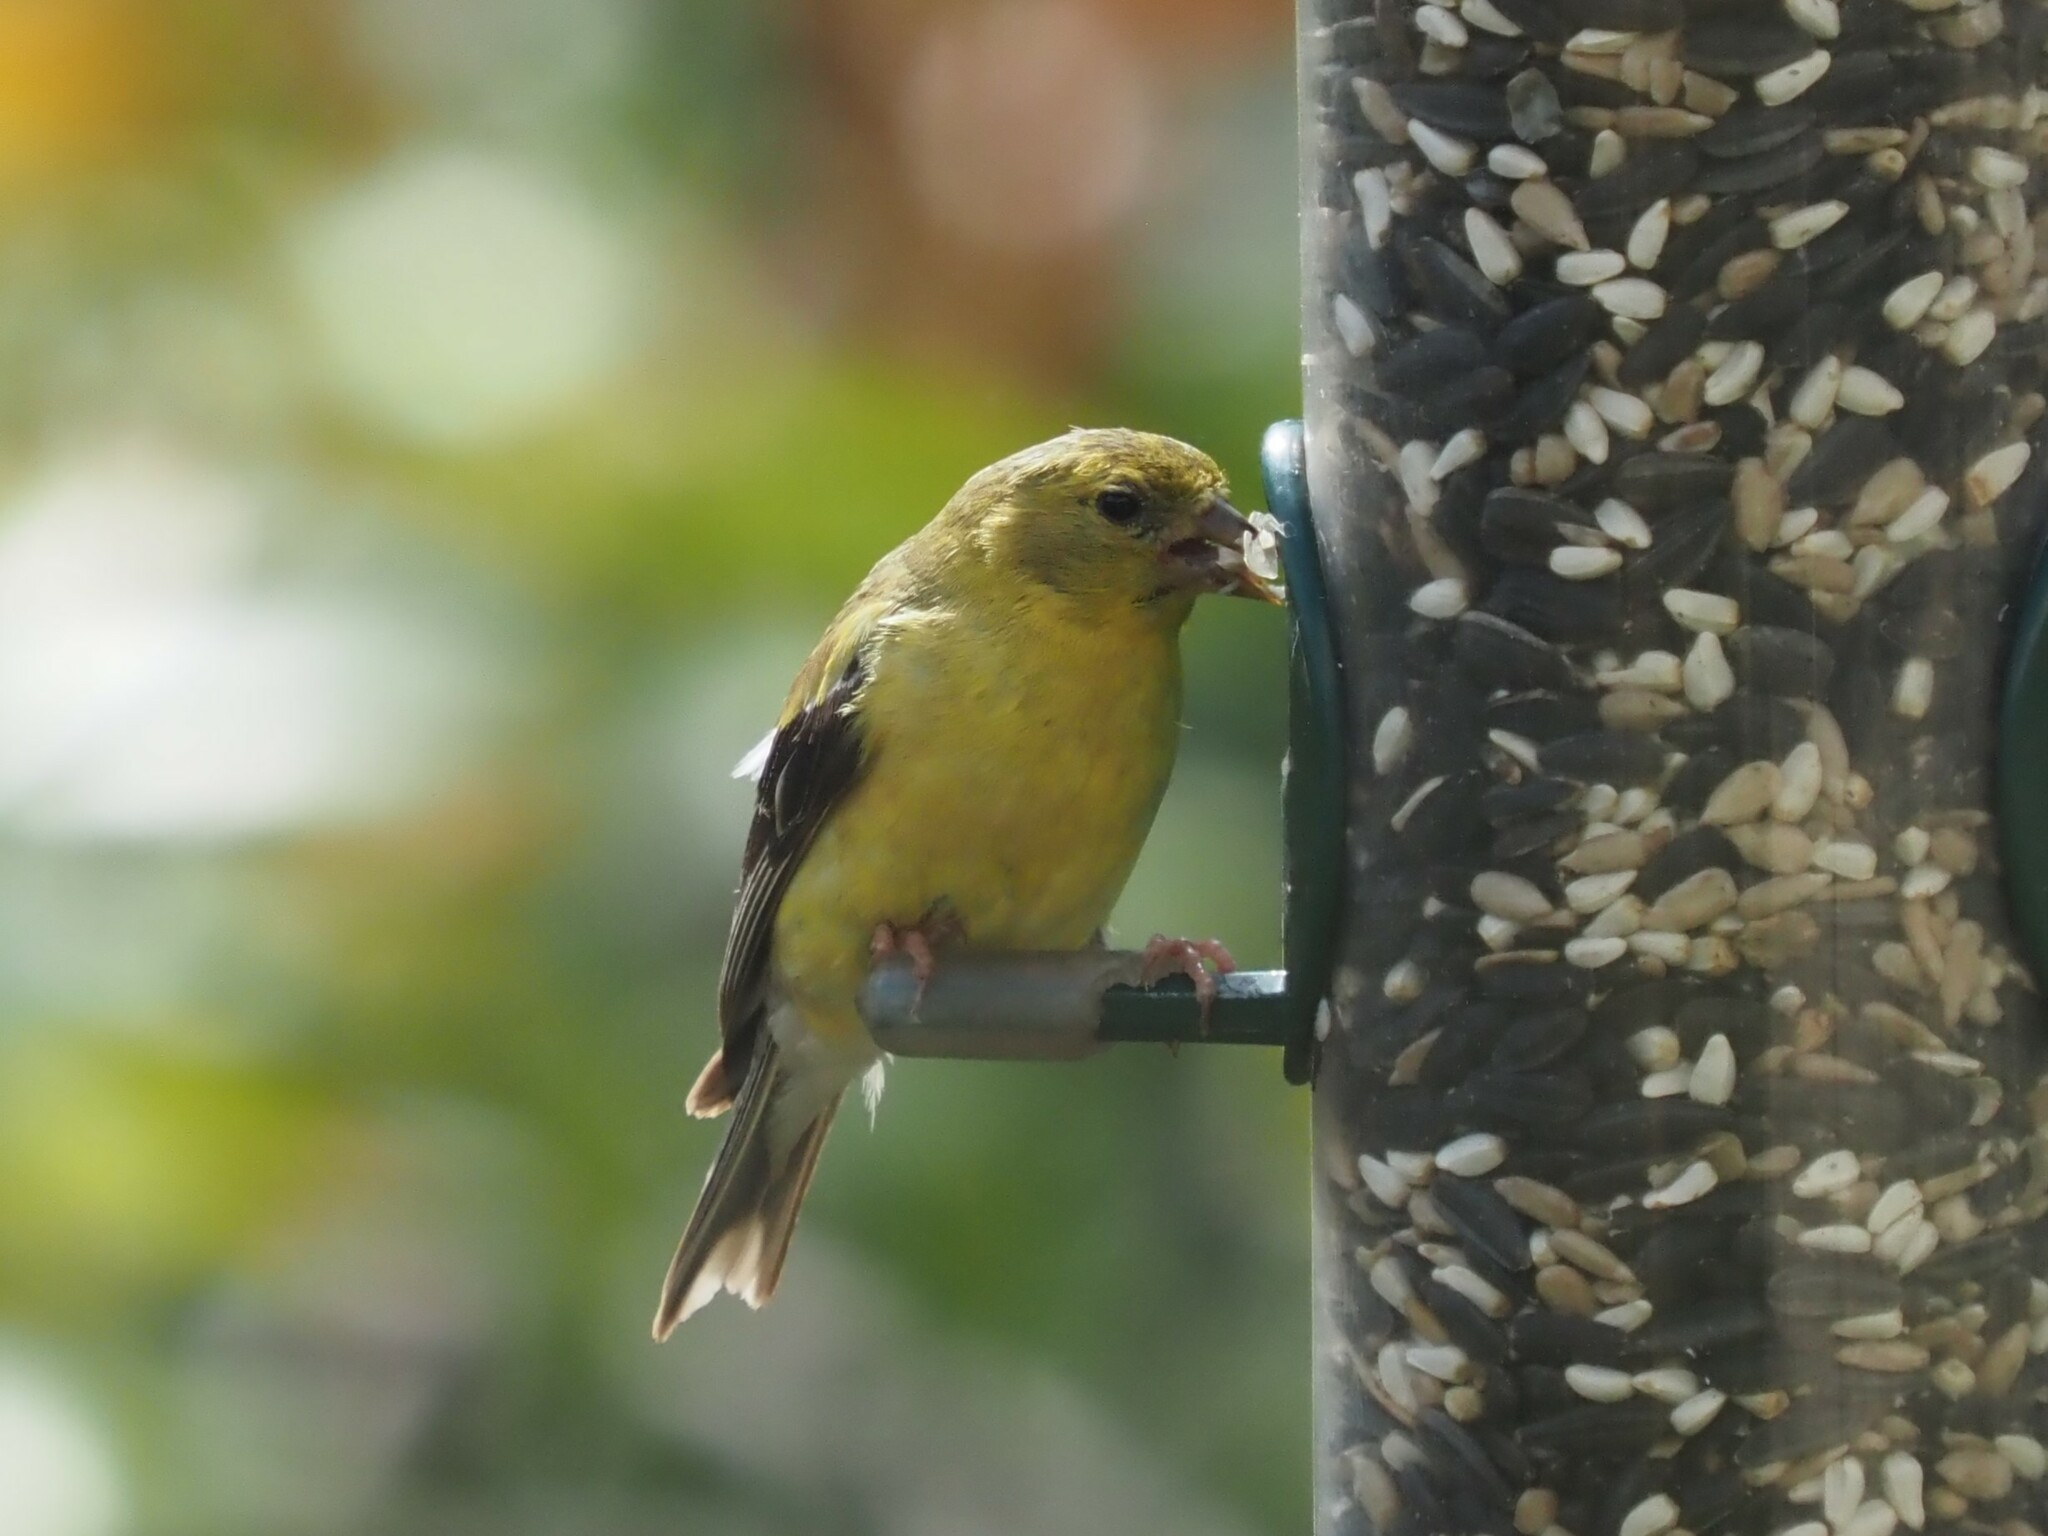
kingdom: Animalia
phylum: Chordata
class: Aves
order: Passeriformes
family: Fringillidae
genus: Spinus
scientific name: Spinus tristis
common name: American goldfinch
